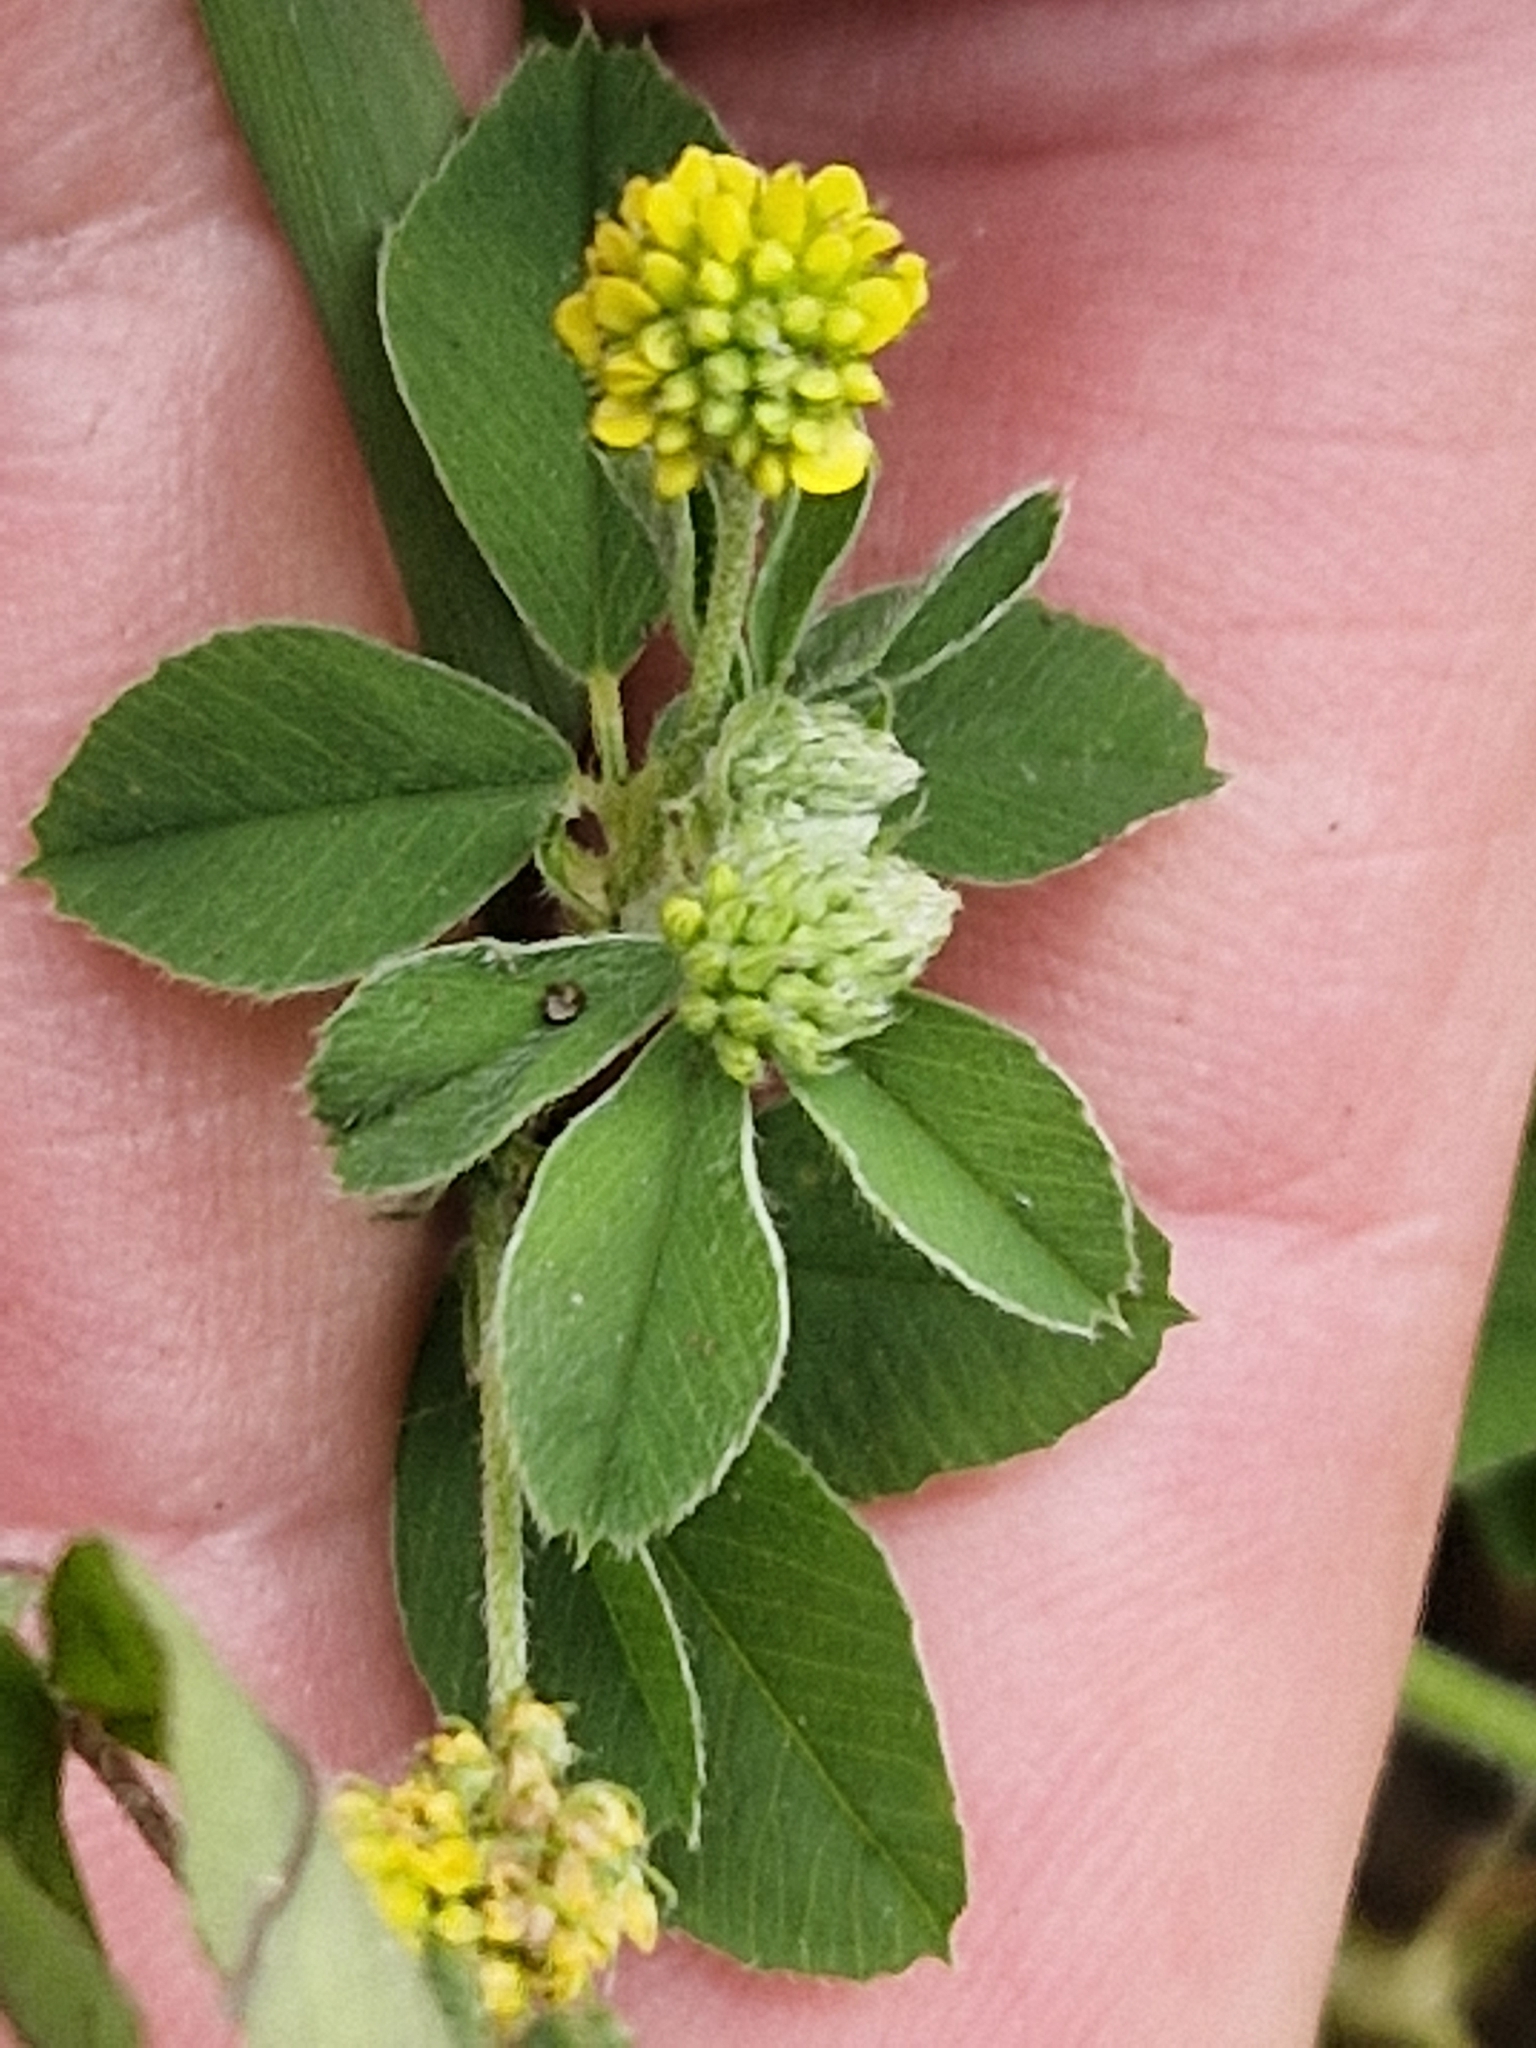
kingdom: Plantae
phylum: Tracheophyta
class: Magnoliopsida
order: Fabales
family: Fabaceae
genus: Medicago
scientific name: Medicago lupulina
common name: Black medick
